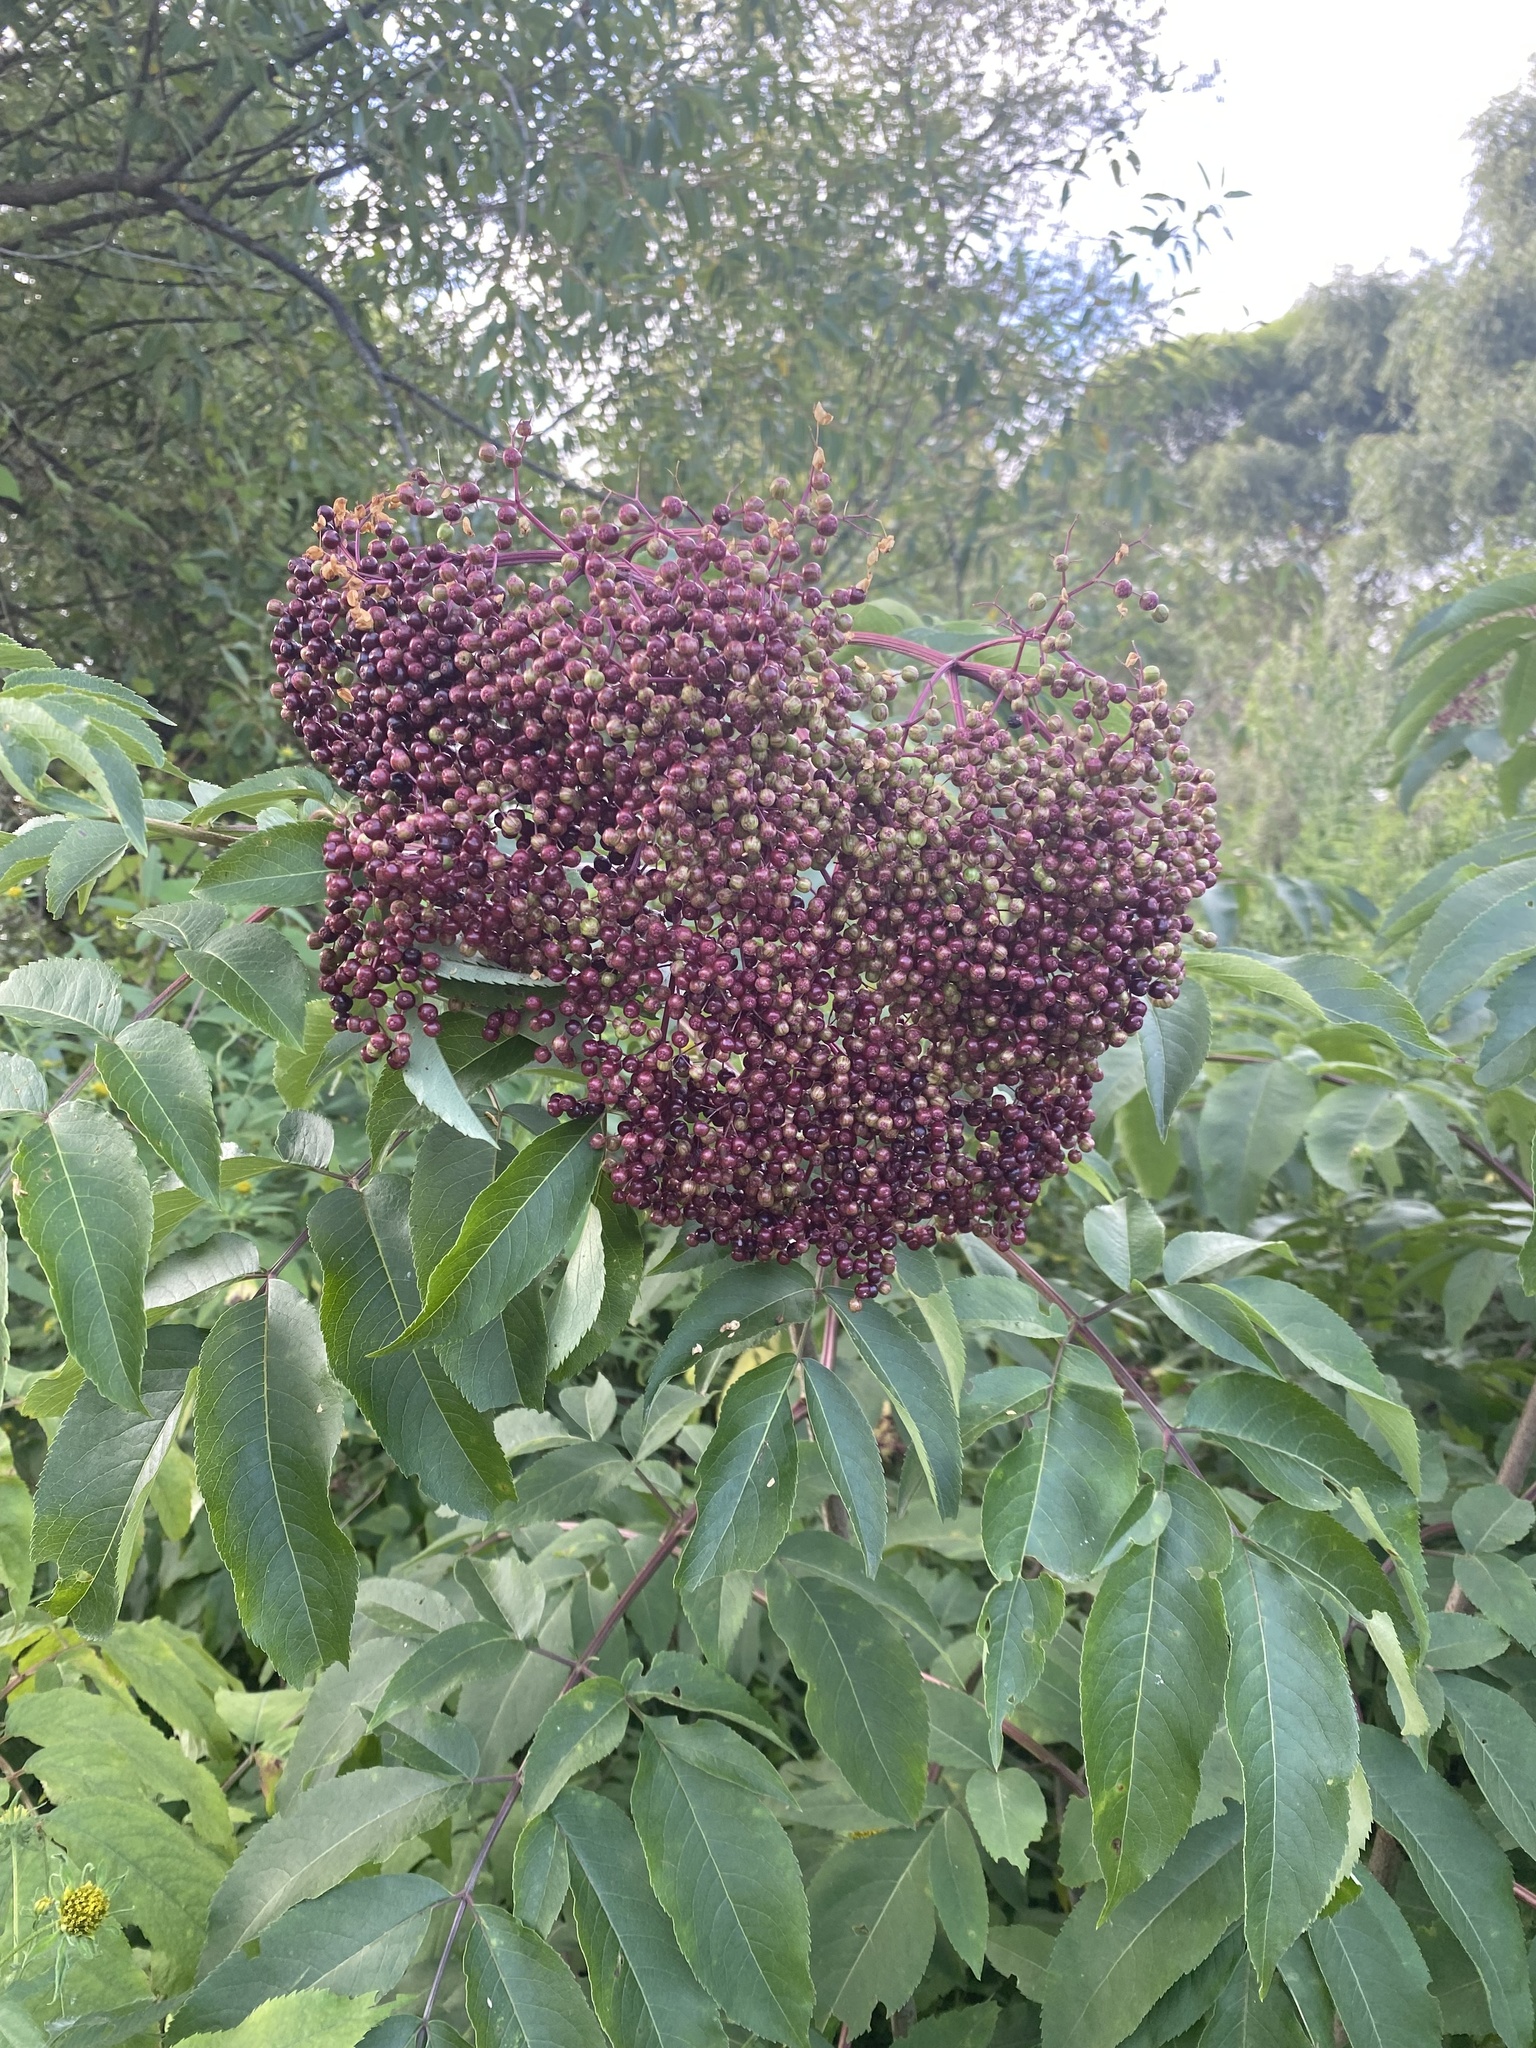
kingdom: Plantae
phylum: Tracheophyta
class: Magnoliopsida
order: Dipsacales
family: Viburnaceae
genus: Sambucus
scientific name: Sambucus canadensis
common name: American elder
